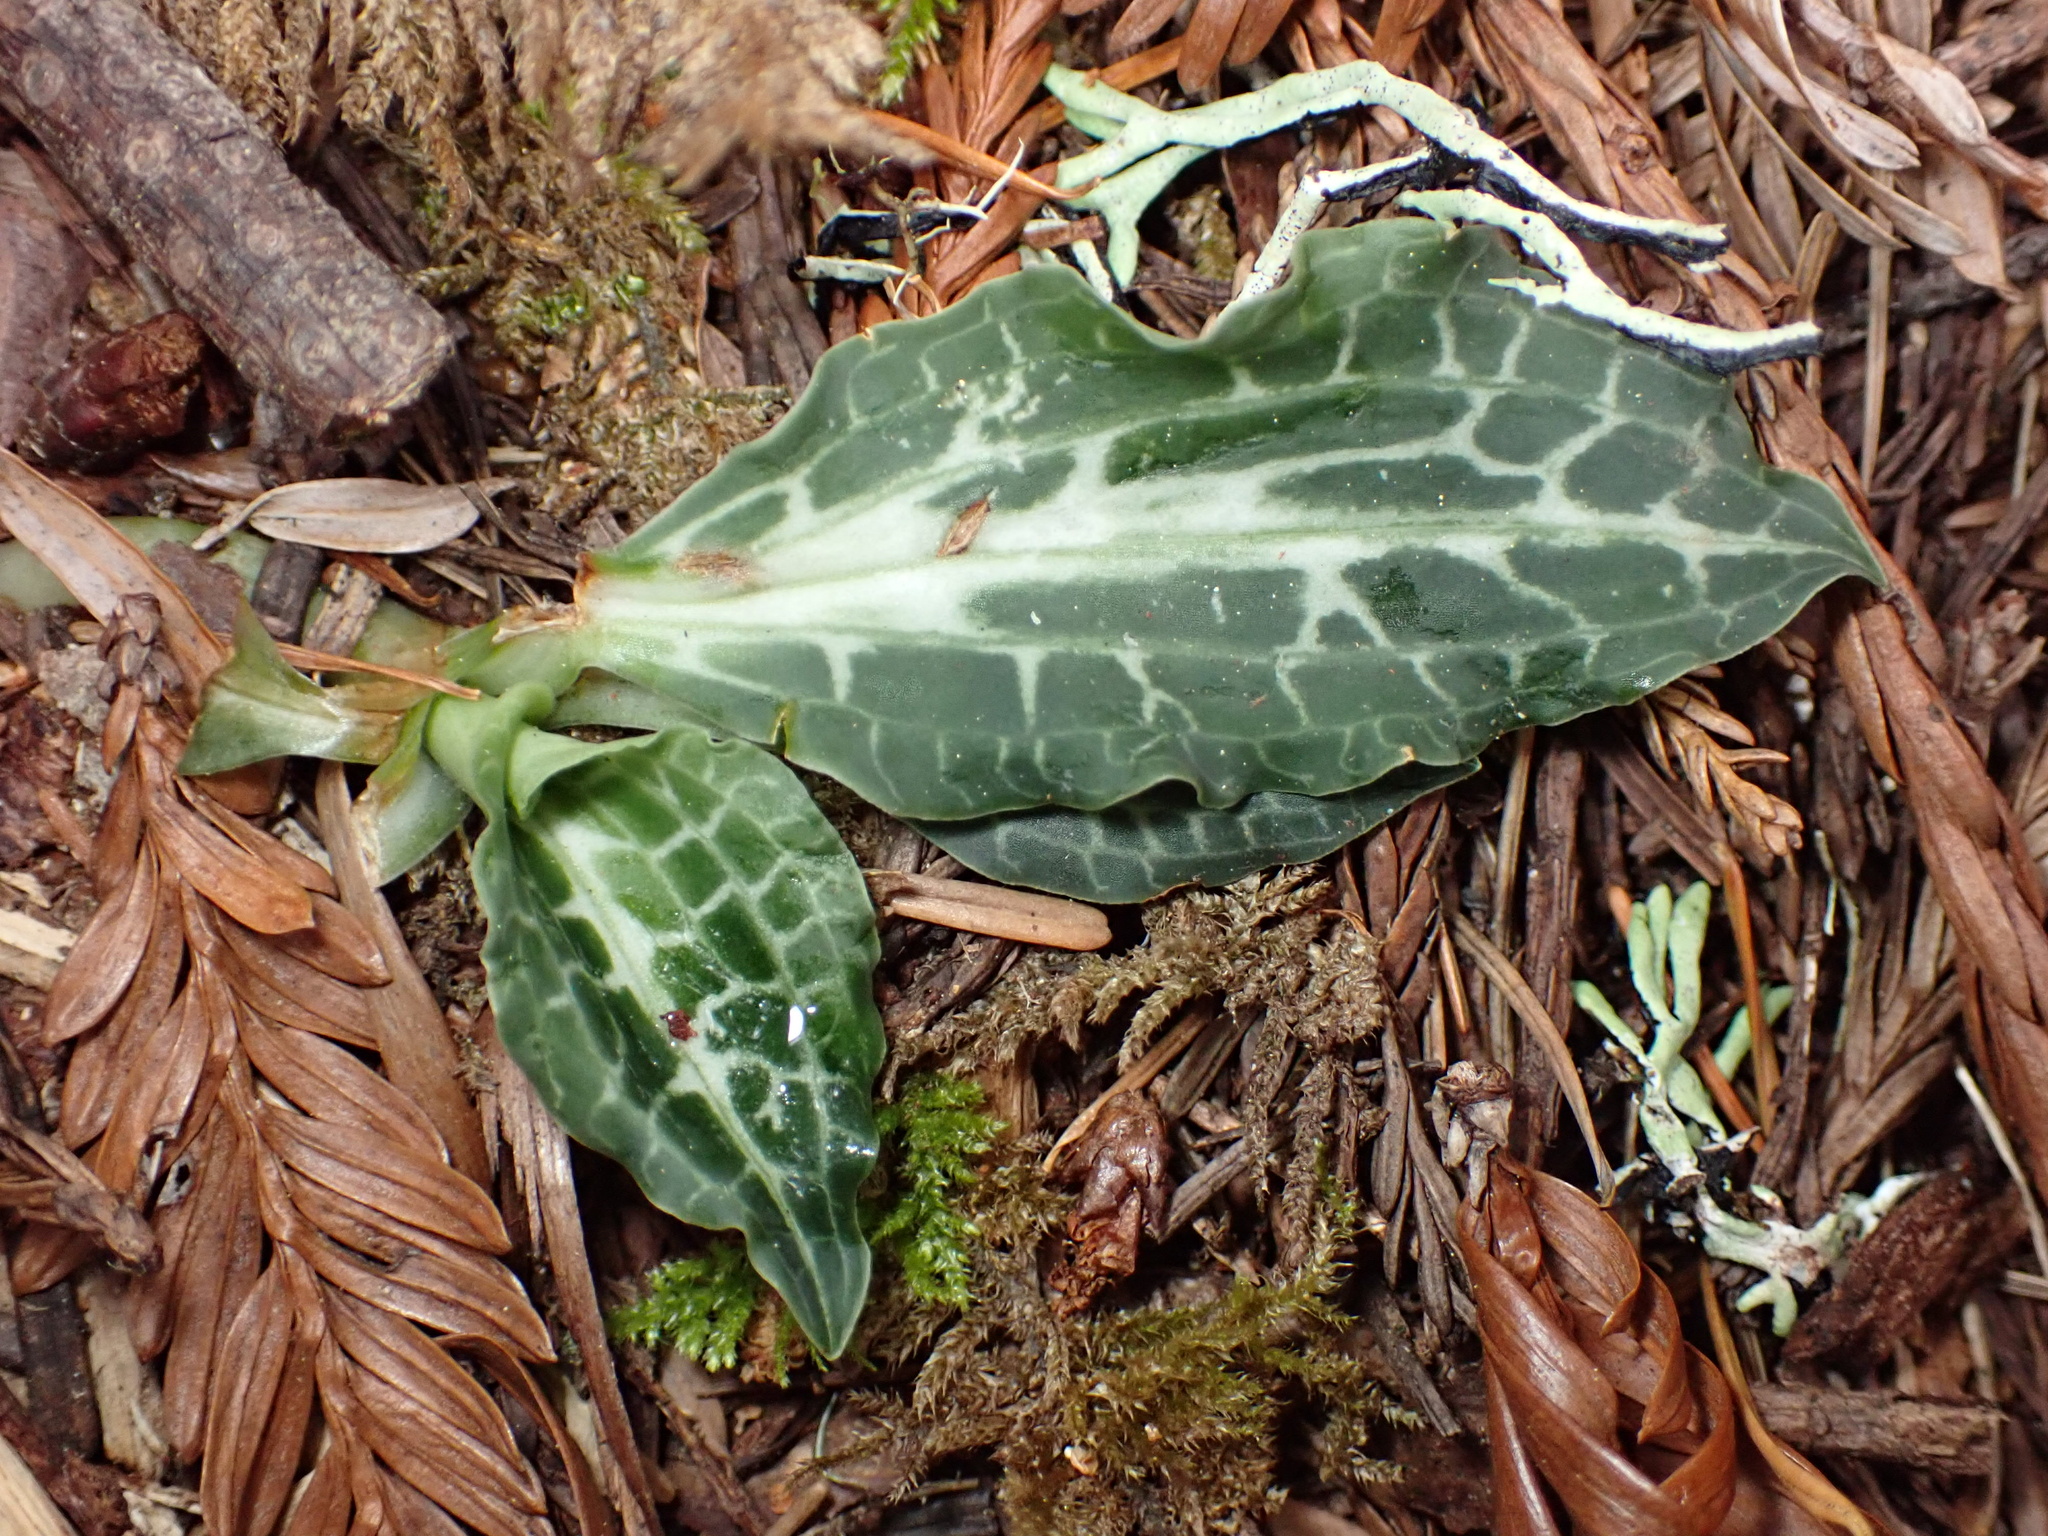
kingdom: Plantae
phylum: Tracheophyta
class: Liliopsida
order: Asparagales
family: Orchidaceae
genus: Goodyera
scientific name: Goodyera oblongifolia
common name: Giant rattlesnake-plantain
